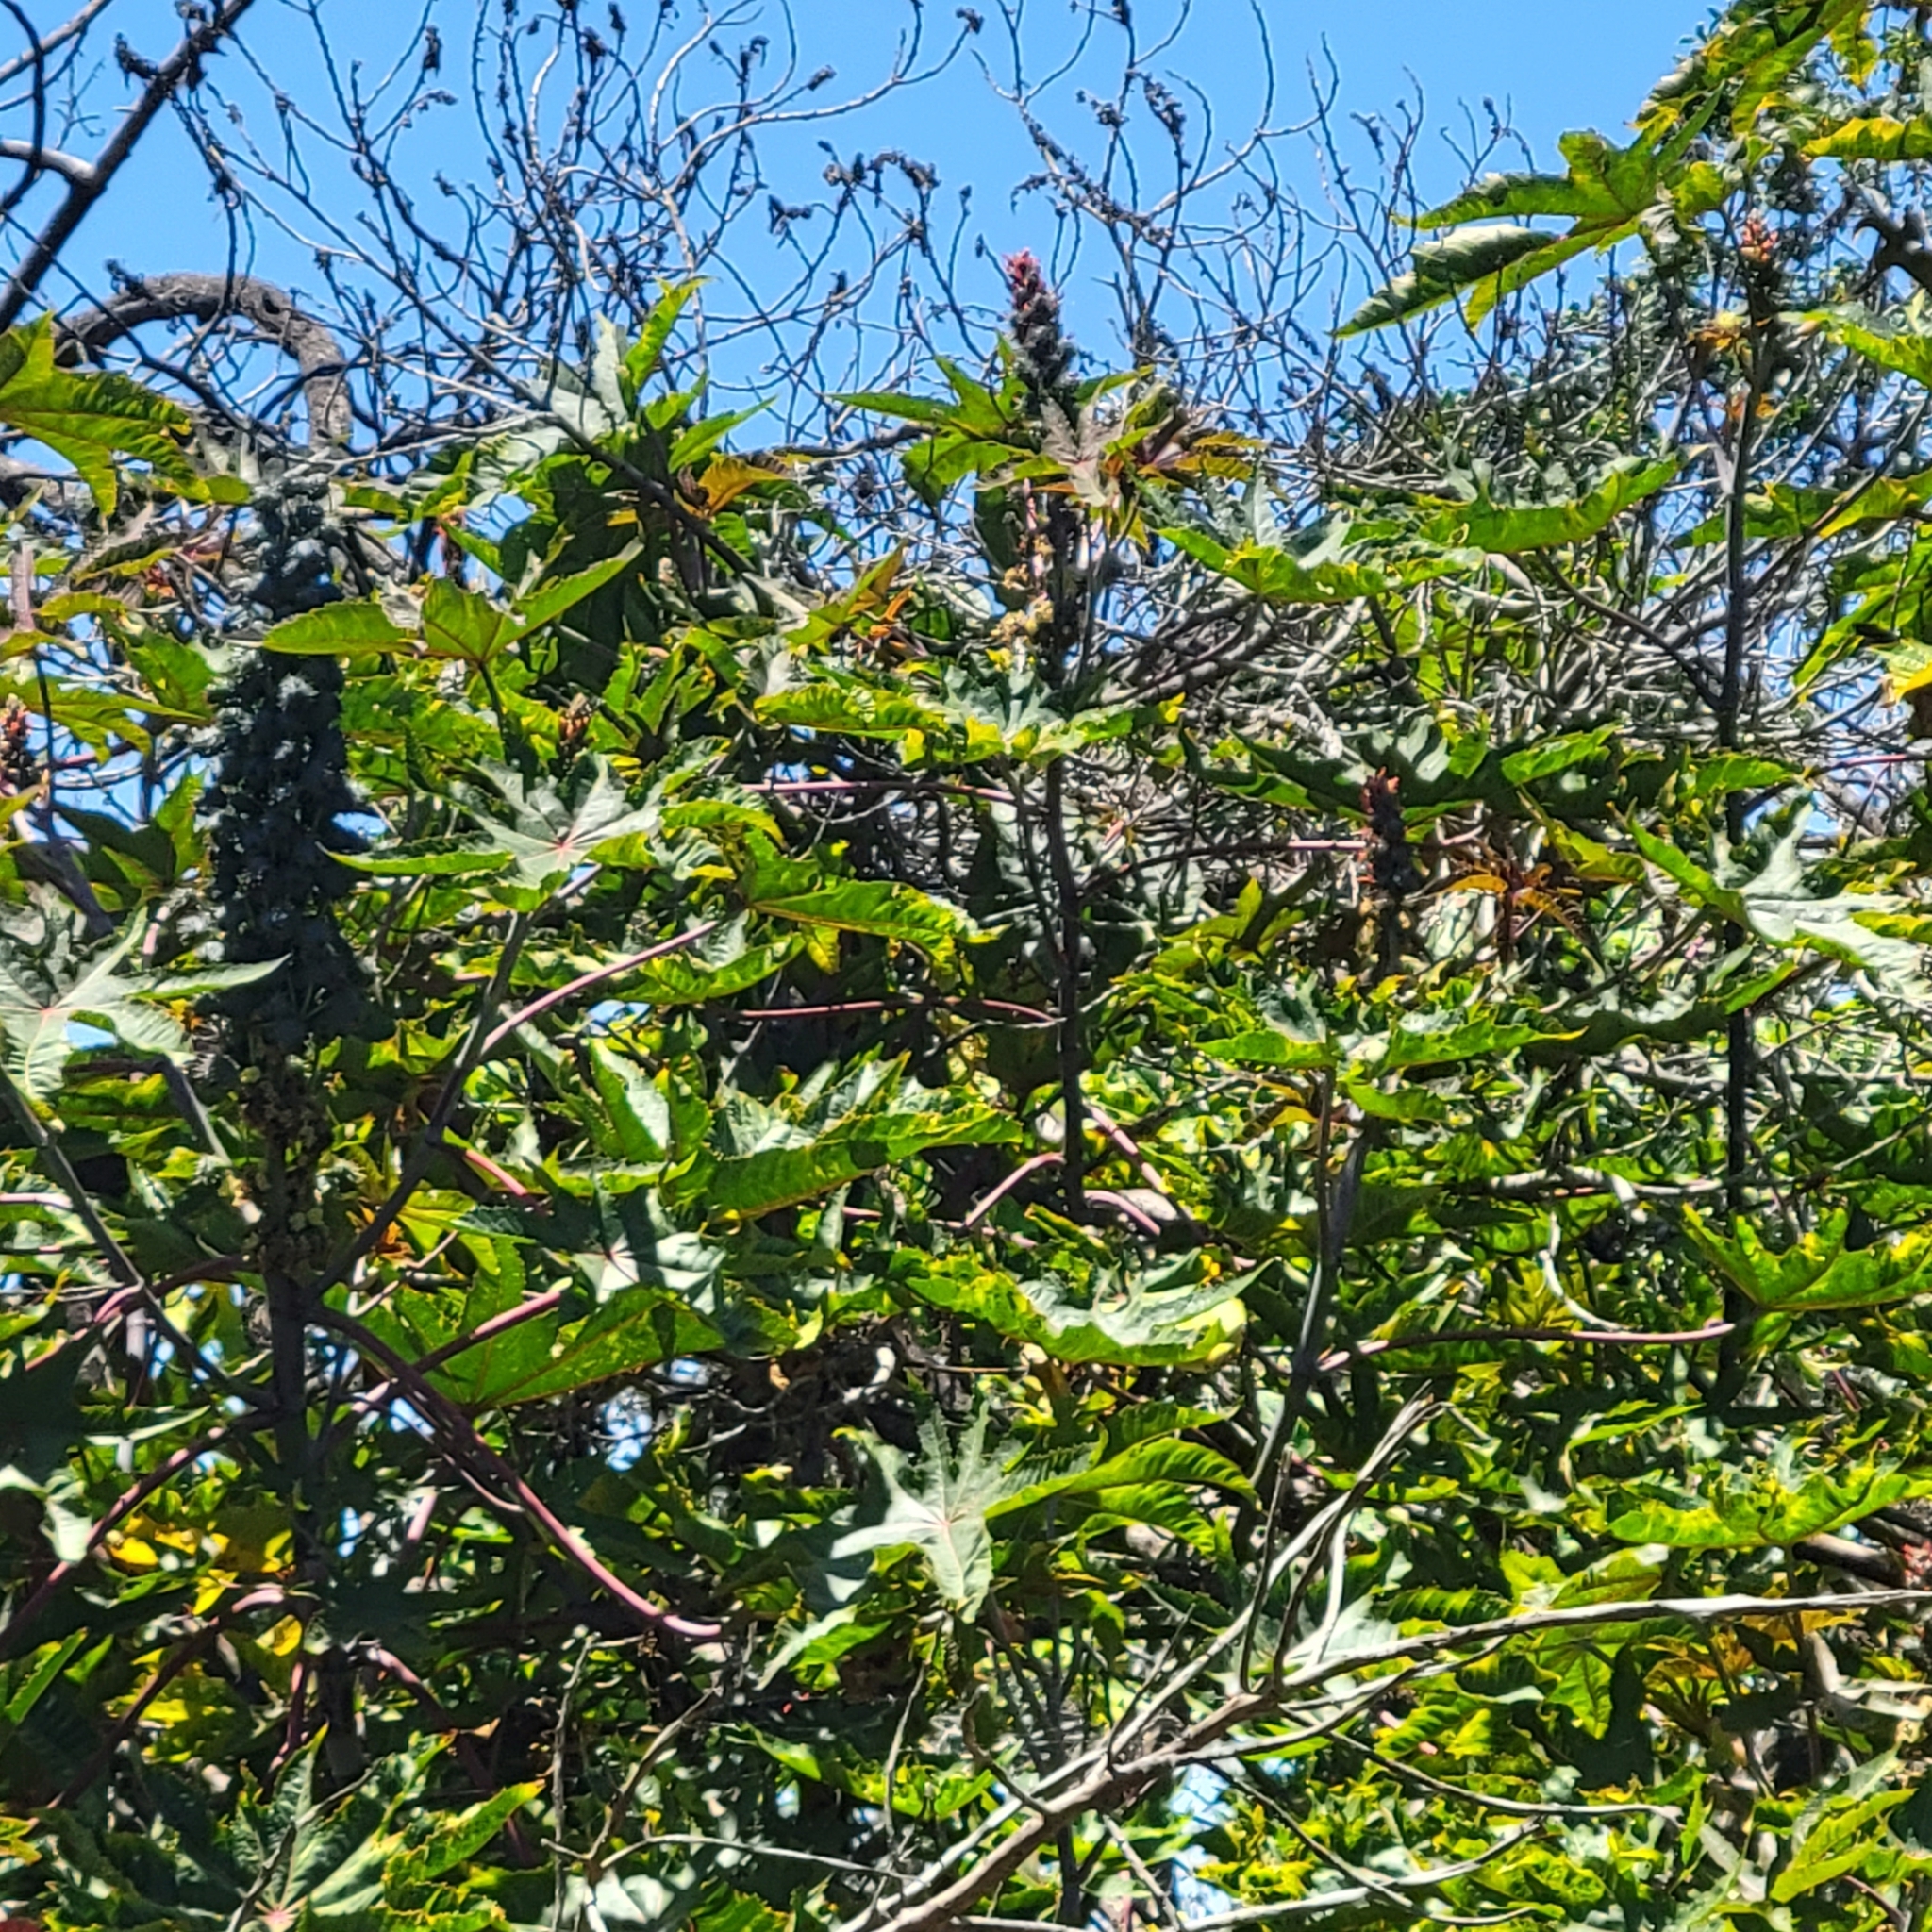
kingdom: Plantae
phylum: Tracheophyta
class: Magnoliopsida
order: Malpighiales
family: Euphorbiaceae
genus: Ricinus
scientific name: Ricinus communis
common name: Castor-oil-plant
